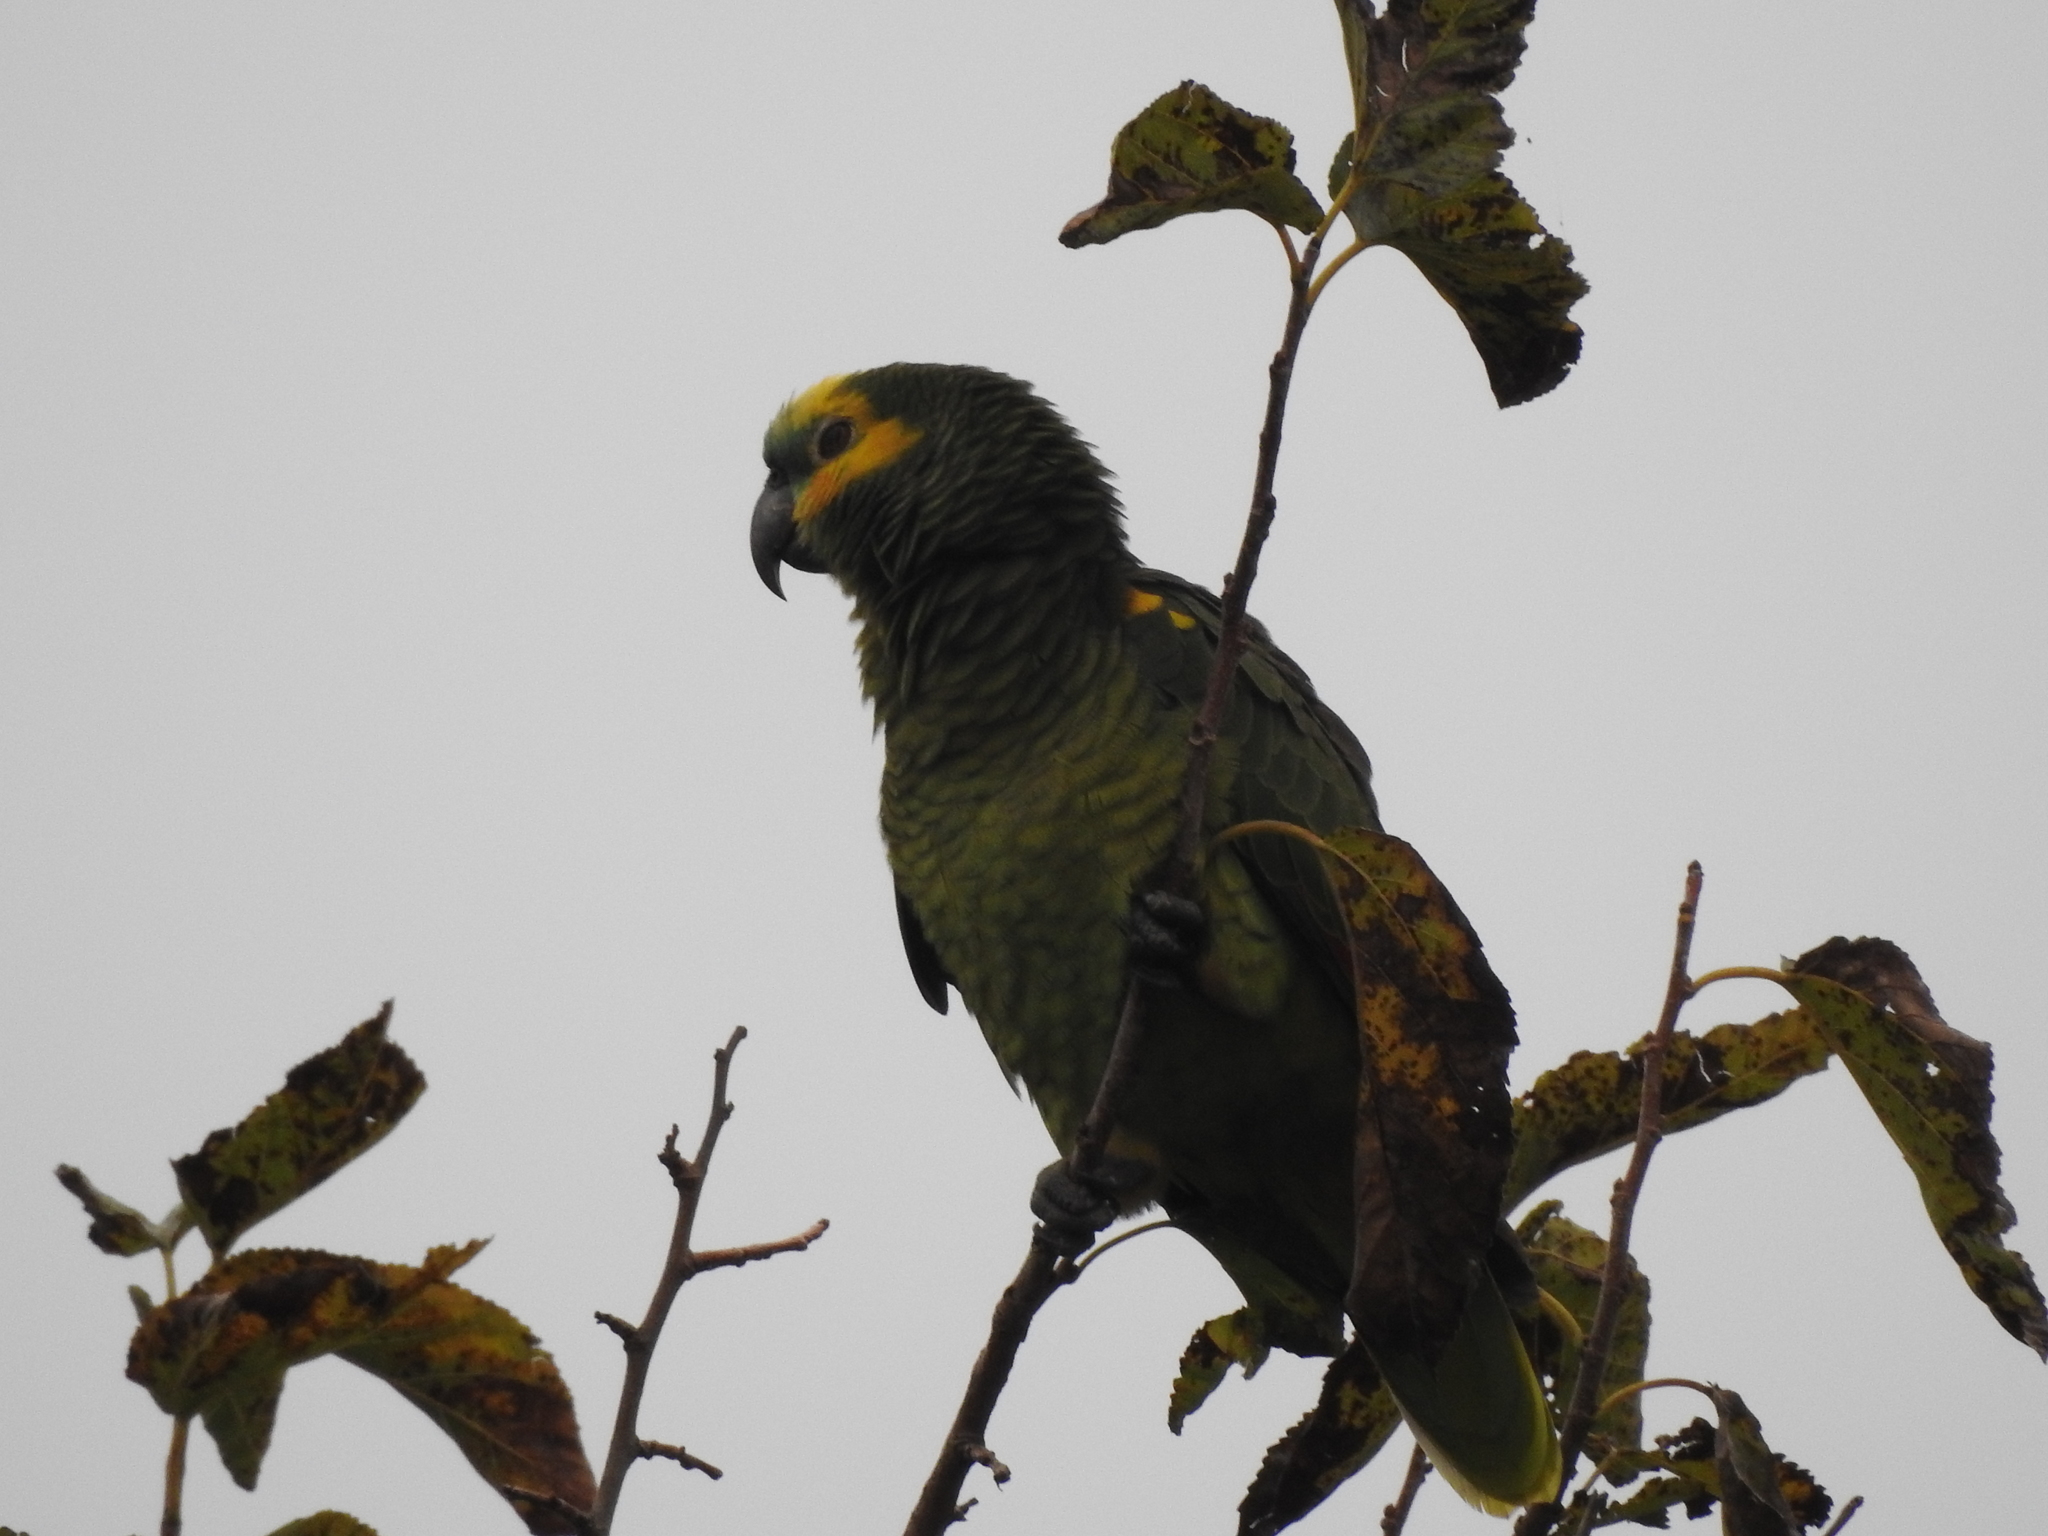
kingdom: Animalia
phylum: Chordata
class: Aves
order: Psittaciformes
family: Psittacidae
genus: Amazona
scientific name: Amazona aestiva
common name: Turquoise-fronted amazon
